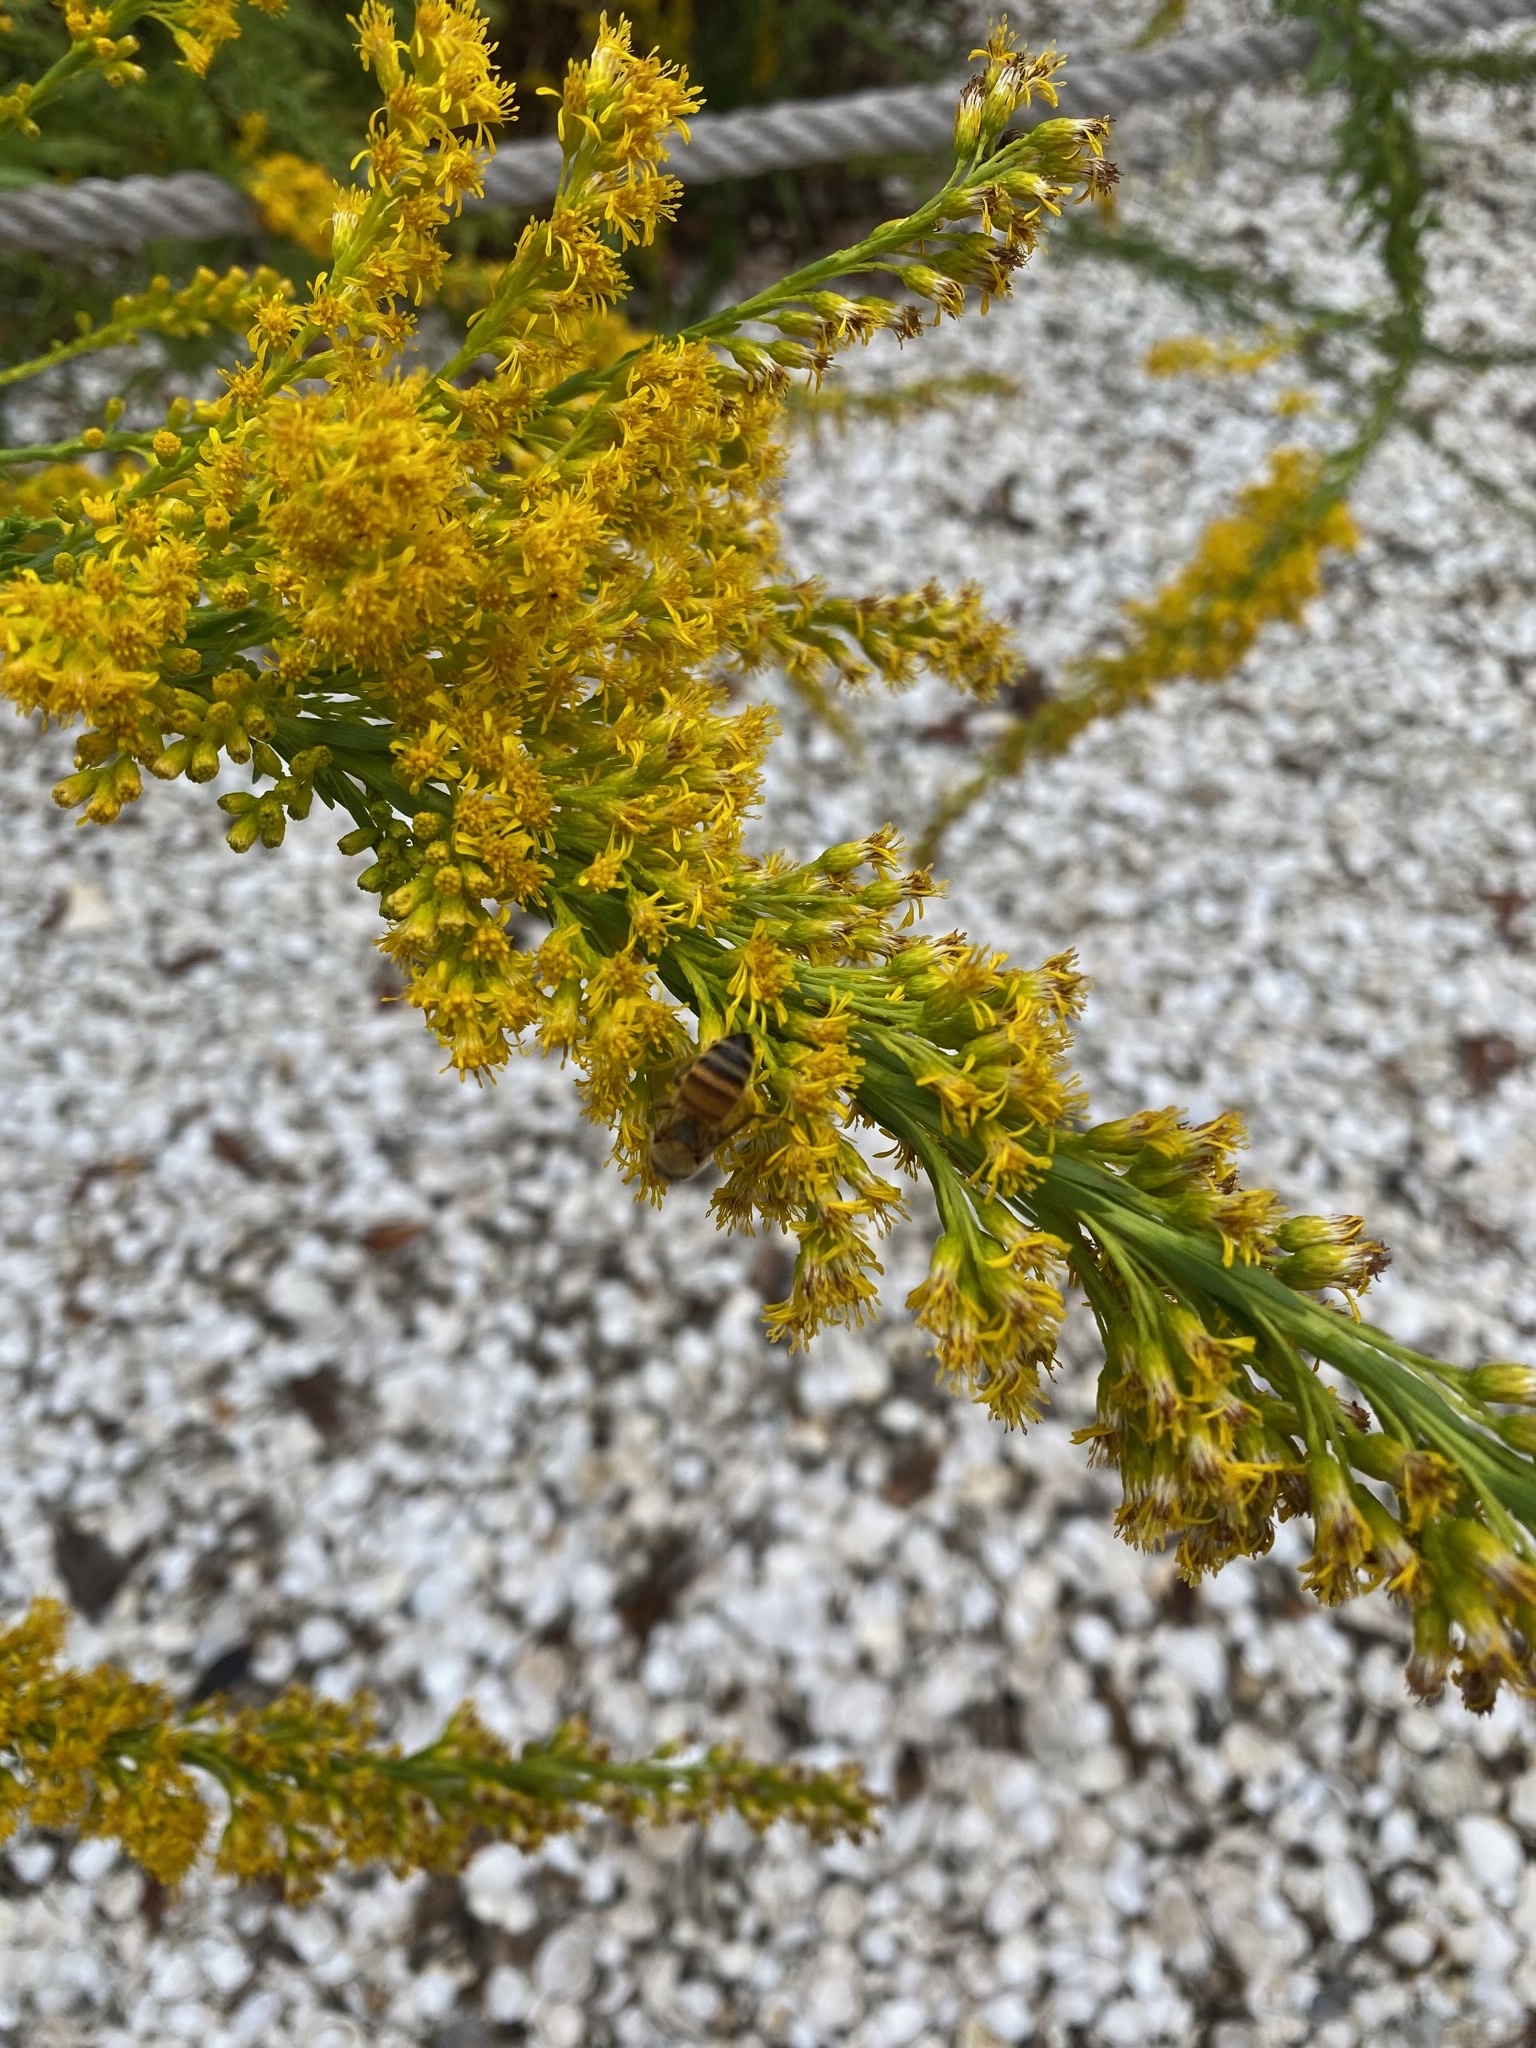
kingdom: Animalia
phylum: Arthropoda
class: Insecta
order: Hymenoptera
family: Apidae
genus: Apis
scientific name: Apis mellifera
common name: Honey bee
